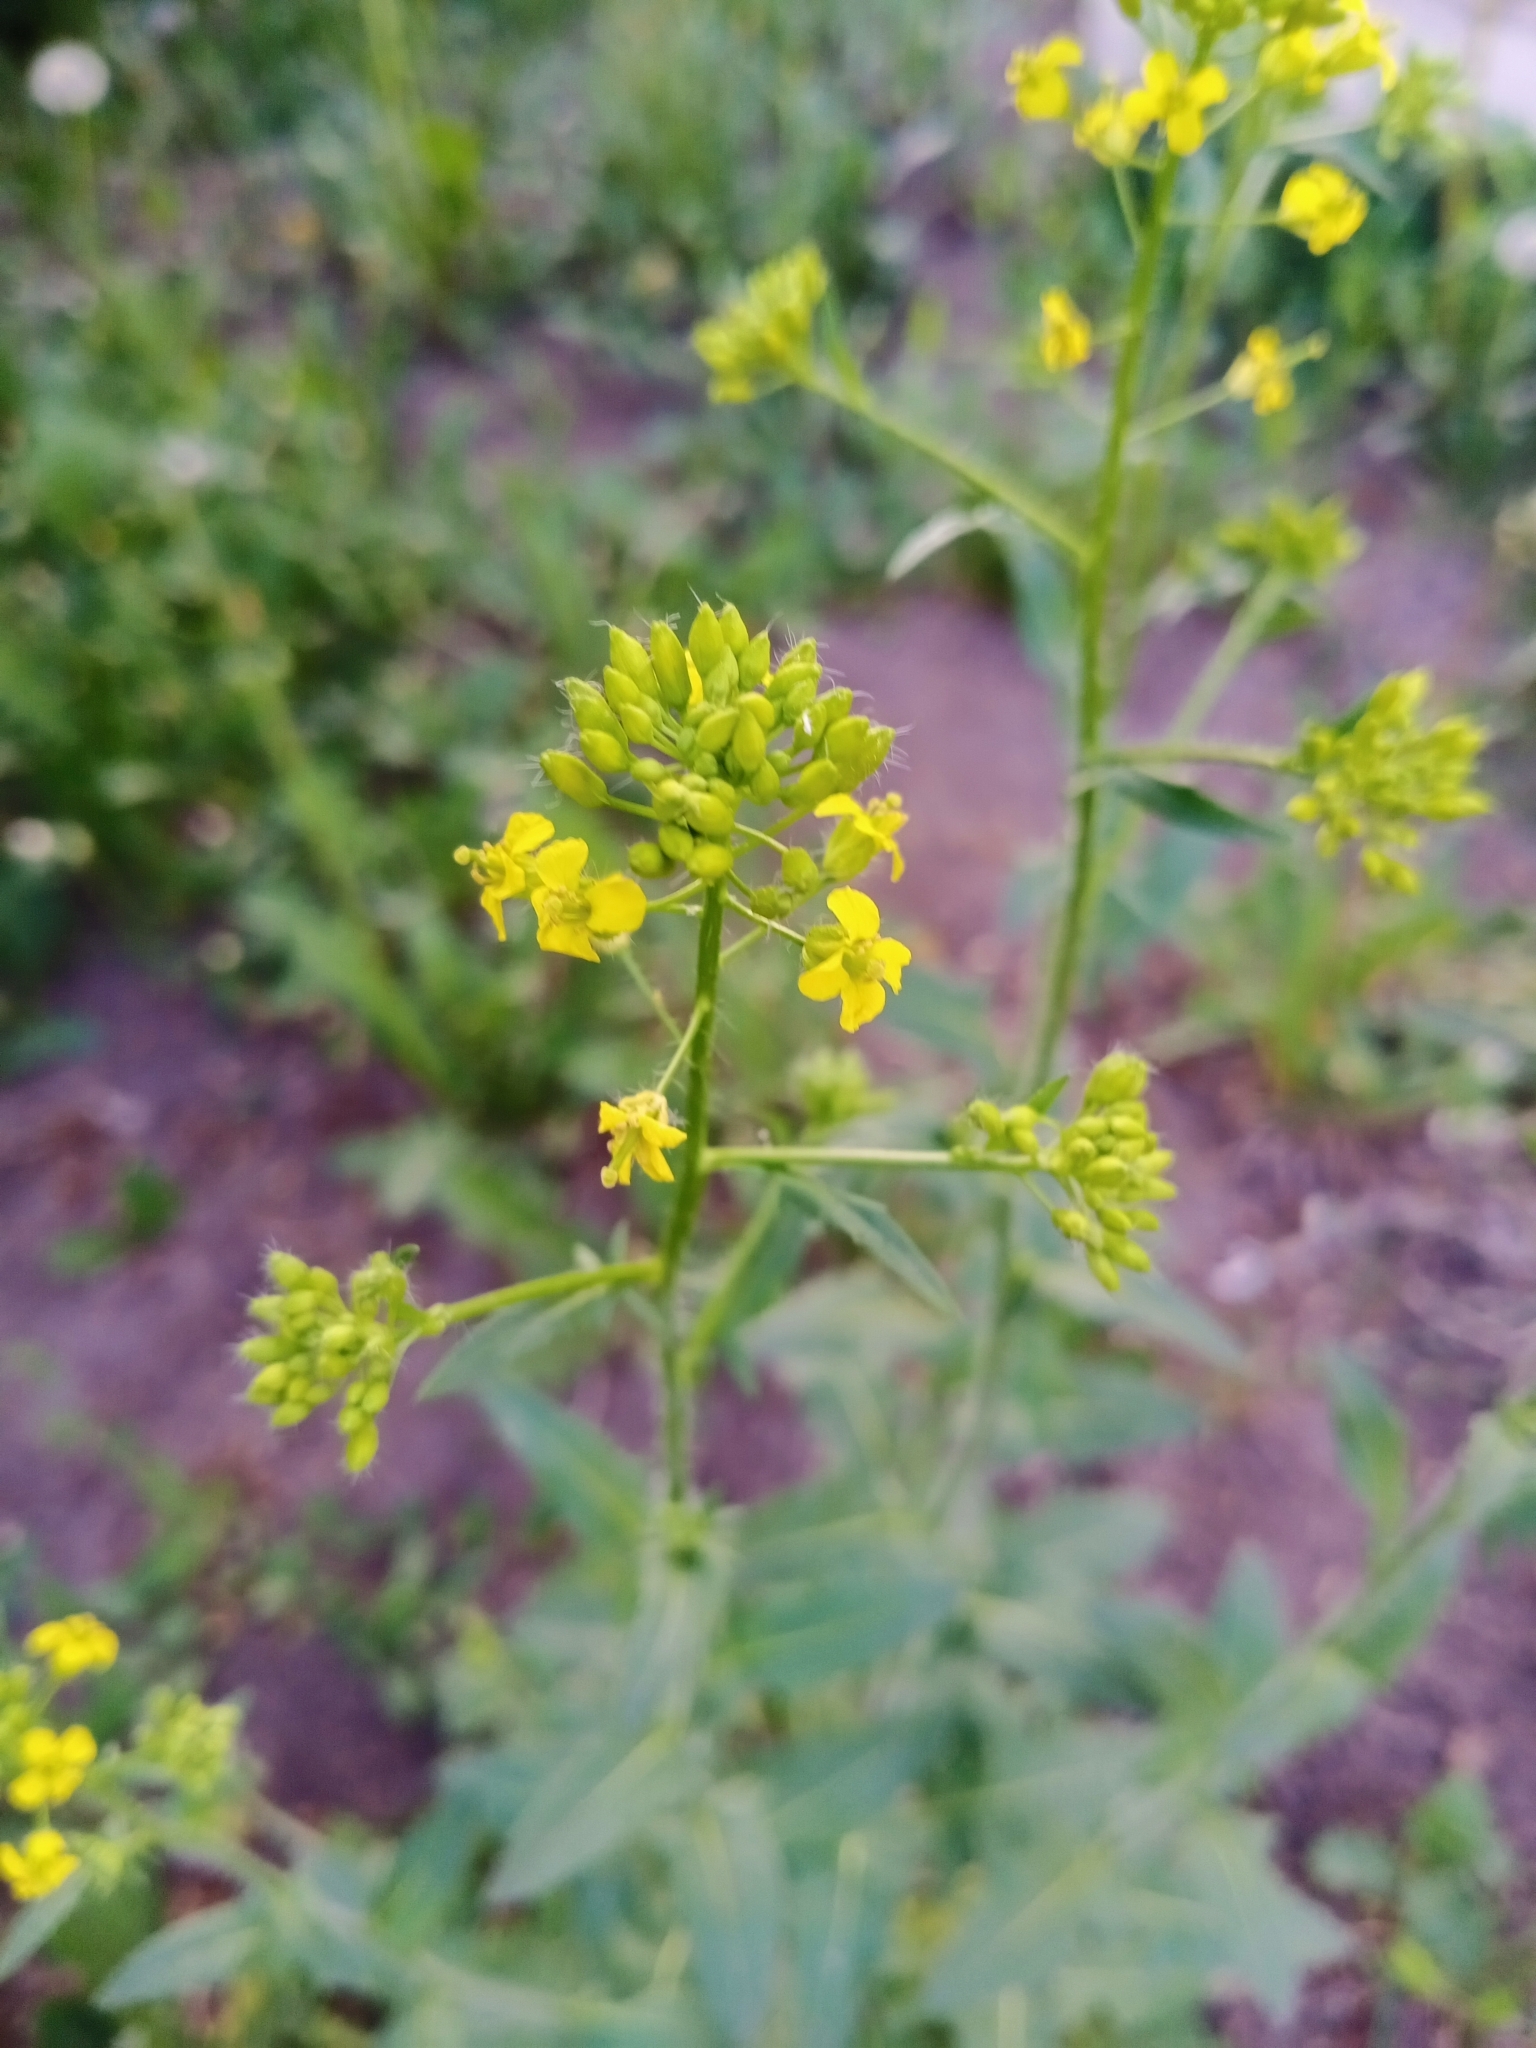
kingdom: Plantae
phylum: Tracheophyta
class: Magnoliopsida
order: Brassicales
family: Brassicaceae
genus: Sisymbrium
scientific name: Sisymbrium loeselii
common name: False london-rocket
